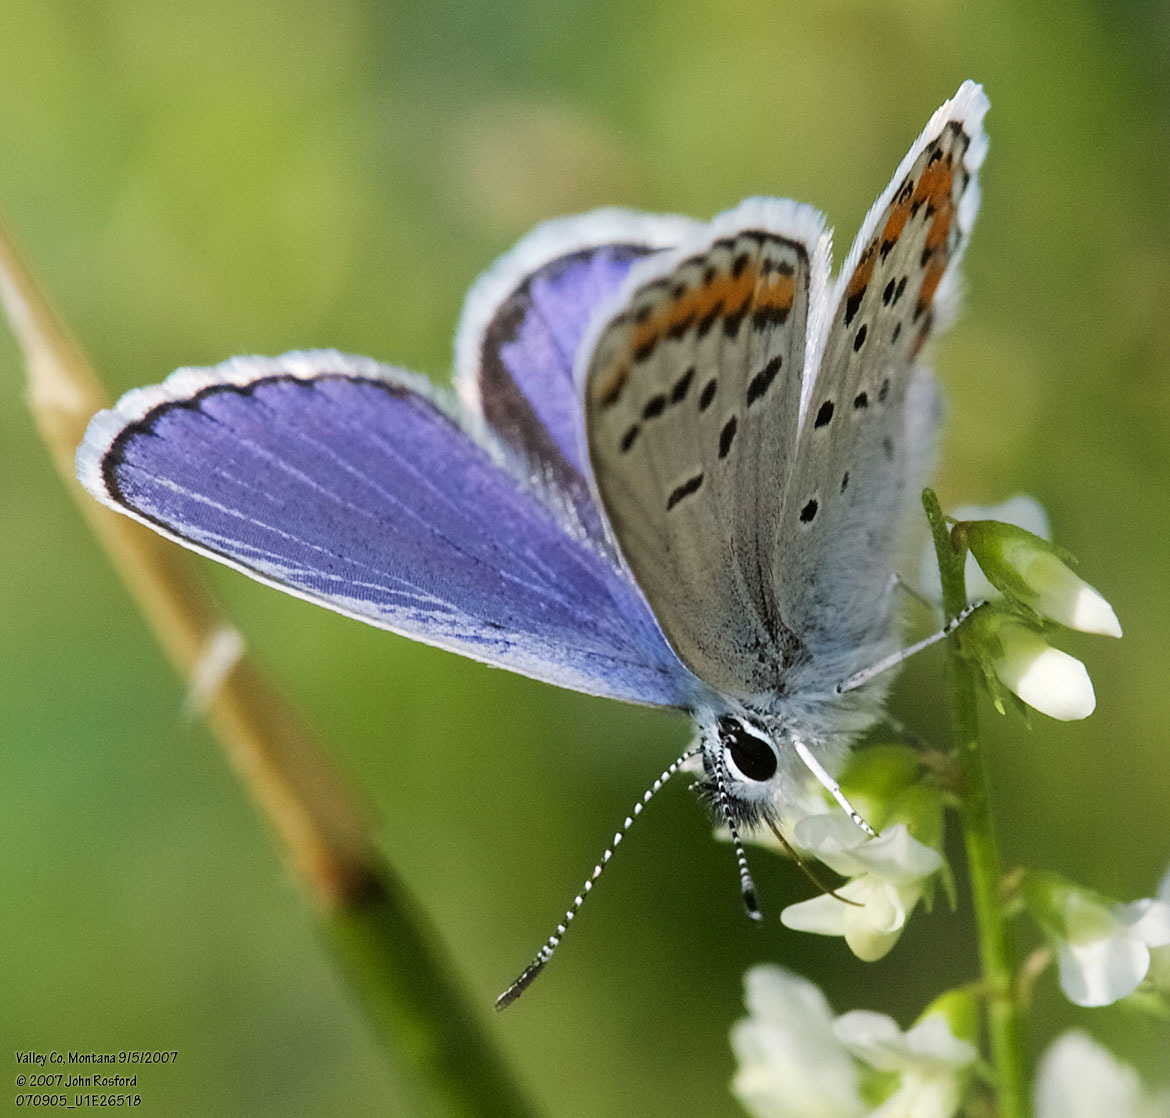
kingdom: Animalia
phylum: Arthropoda
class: Insecta
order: Lepidoptera
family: Lycaenidae
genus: Lycaeides
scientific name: Lycaeides melissa
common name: Melissa blue
